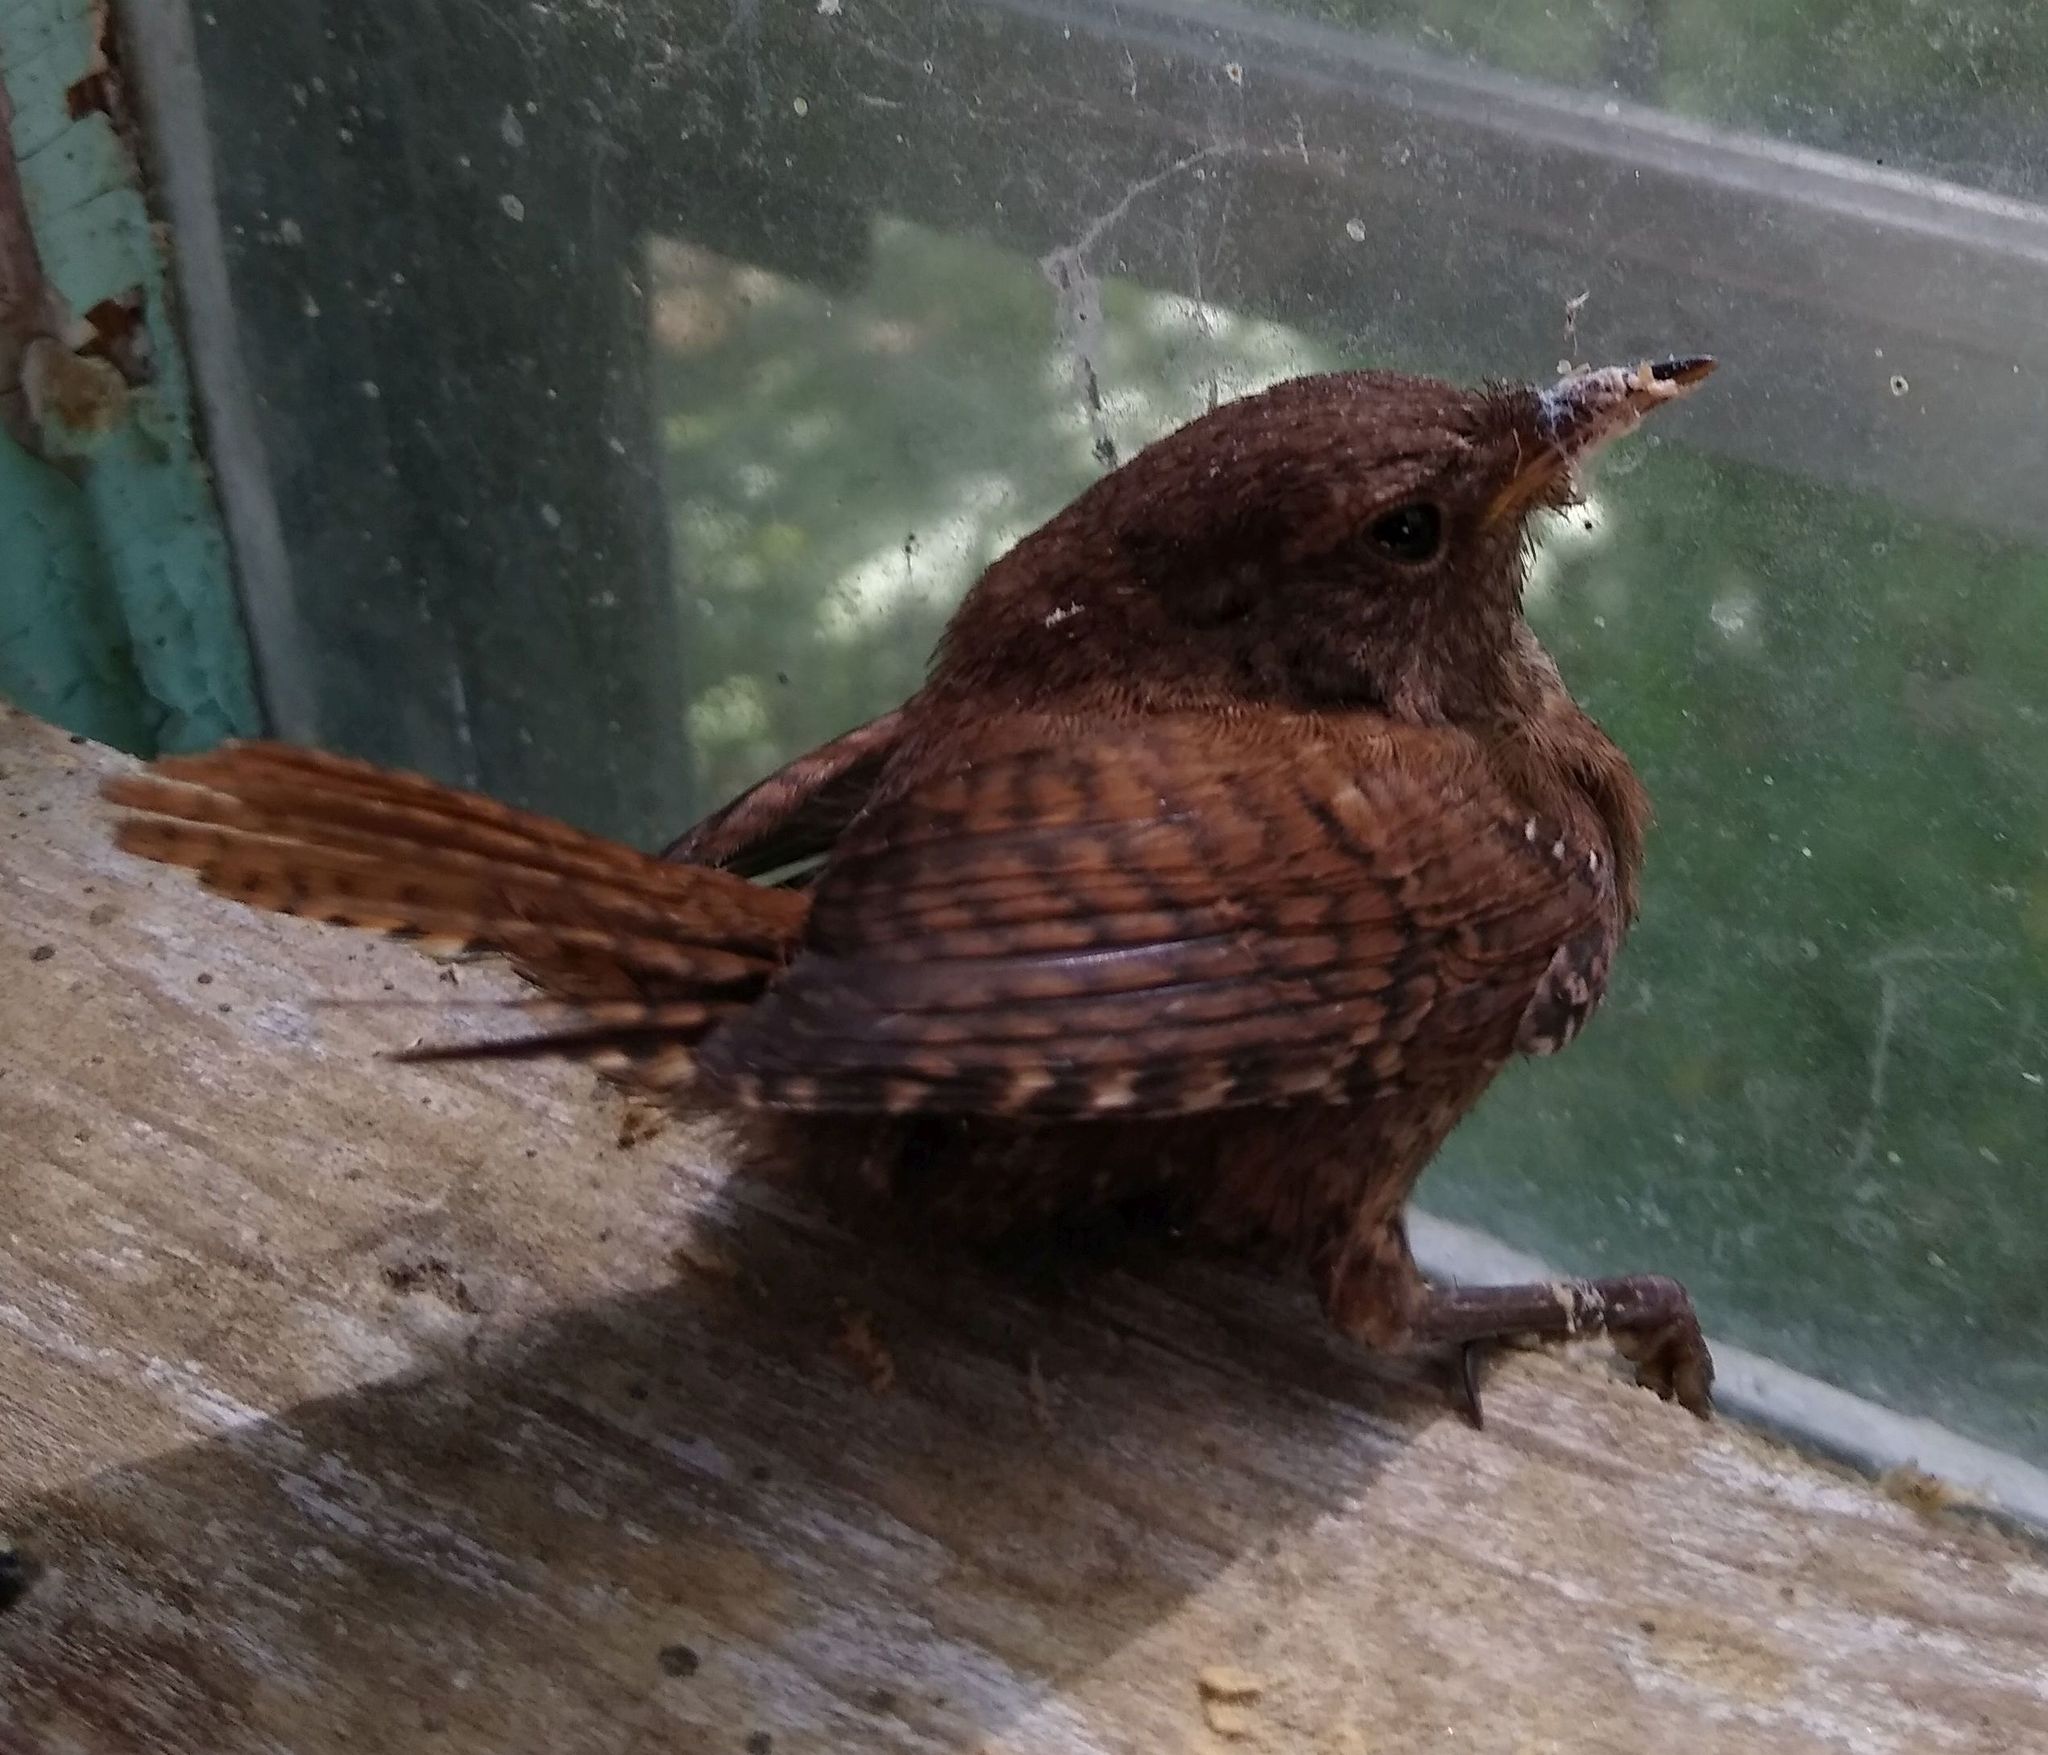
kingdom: Animalia
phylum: Chordata
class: Aves
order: Passeriformes
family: Troglodytidae
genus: Troglodytes
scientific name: Troglodytes hiemalis
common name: Winter wren
